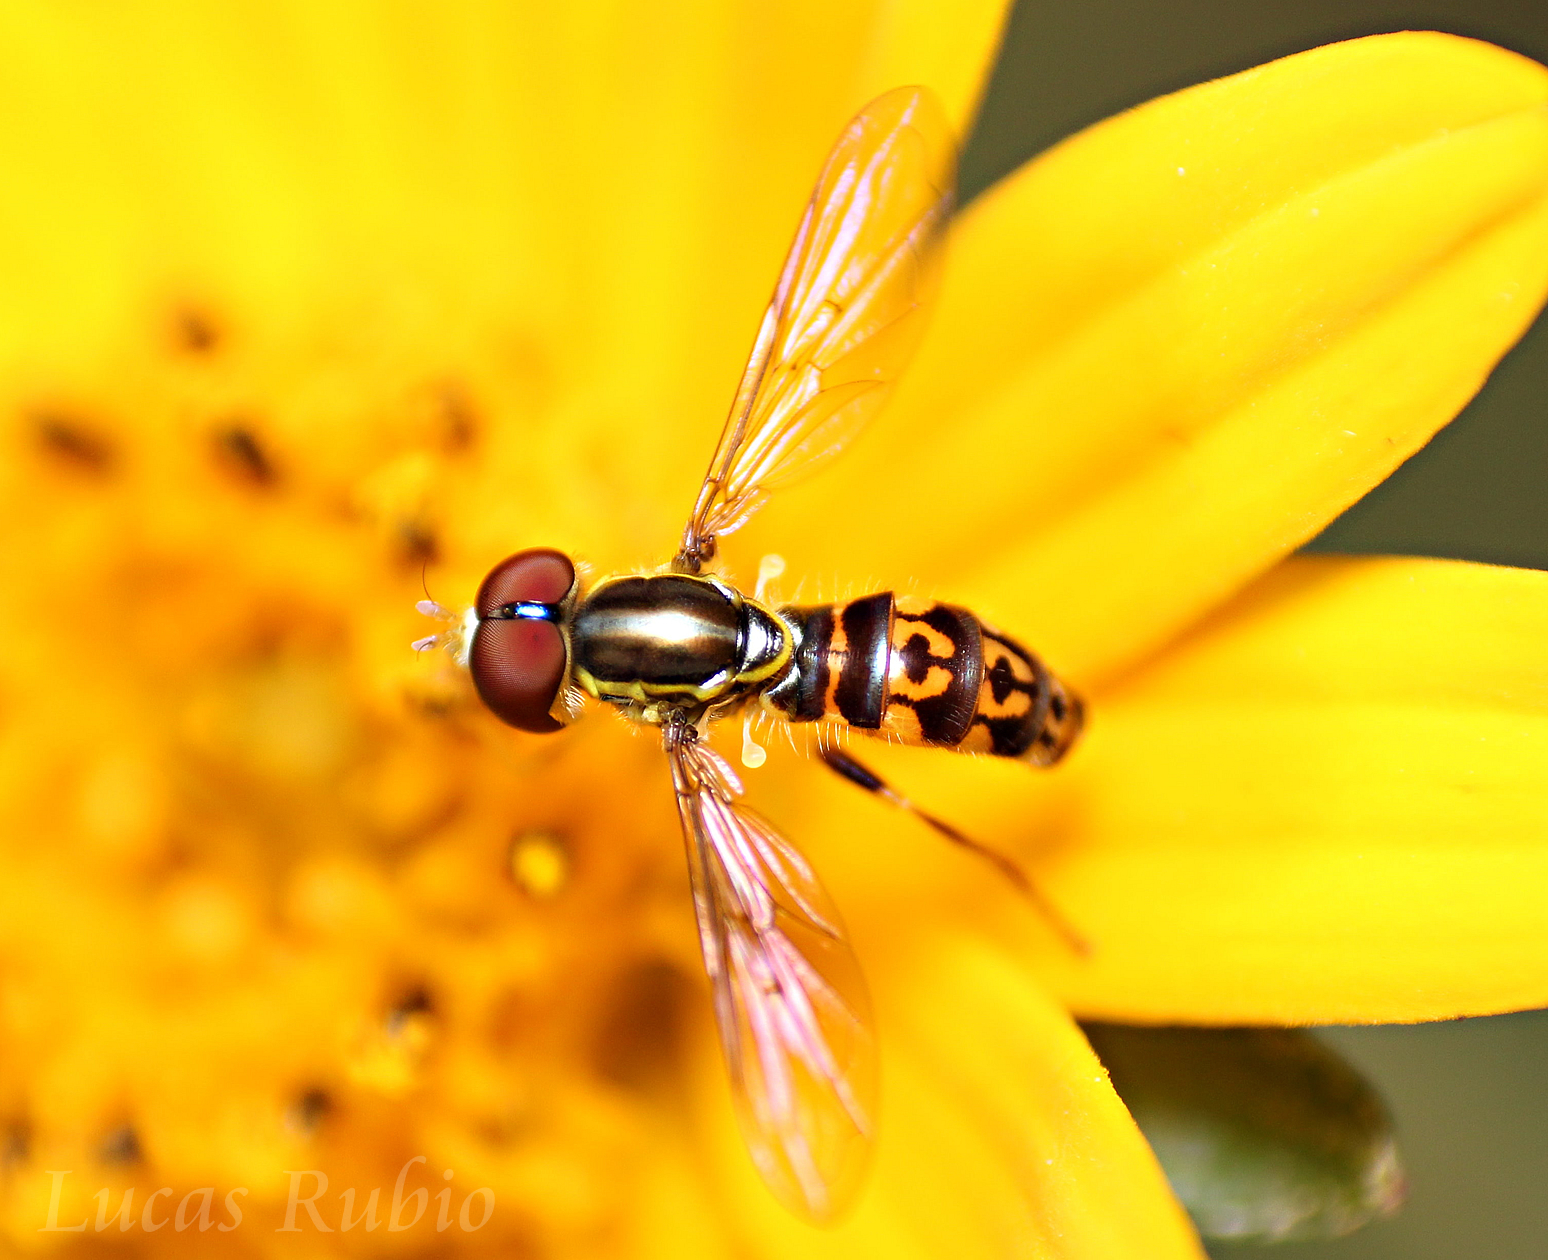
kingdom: Animalia
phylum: Arthropoda
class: Insecta
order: Diptera
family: Syrphidae
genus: Toxomerus
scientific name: Toxomerus virgulatus
